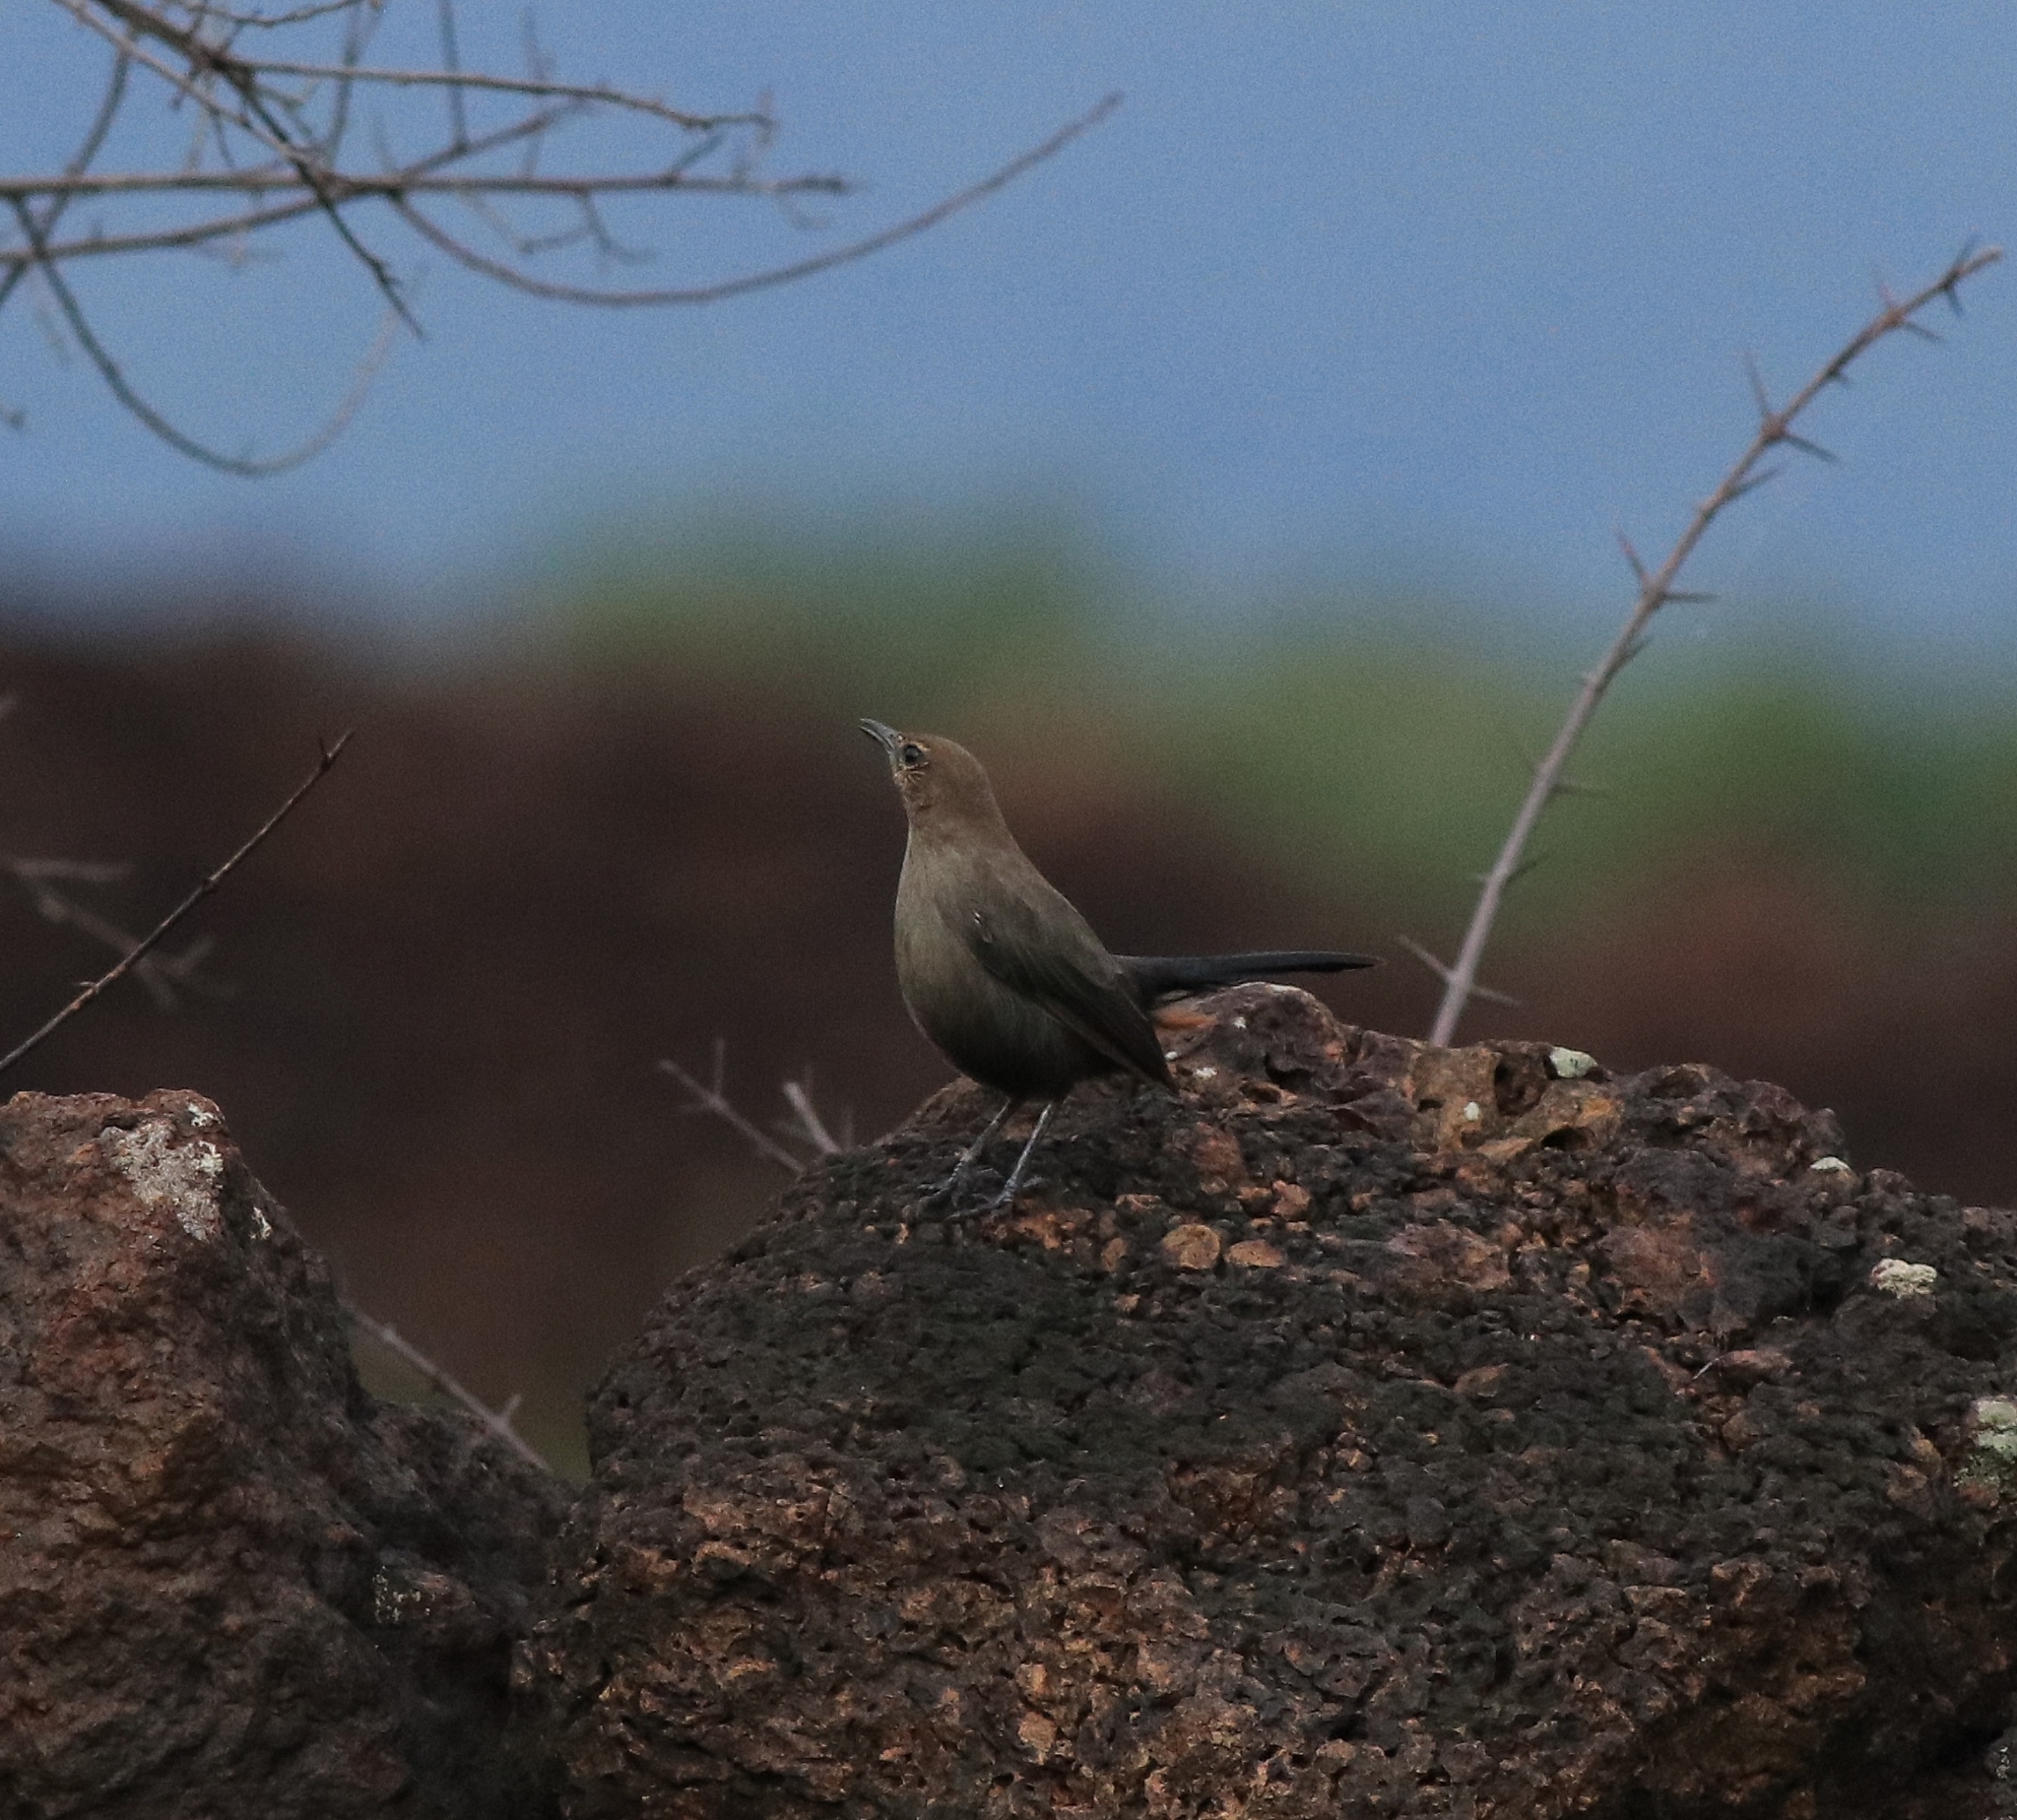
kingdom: Animalia
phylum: Chordata
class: Aves
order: Passeriformes
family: Muscicapidae
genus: Saxicoloides
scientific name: Saxicoloides fulicatus
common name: Indian robin
